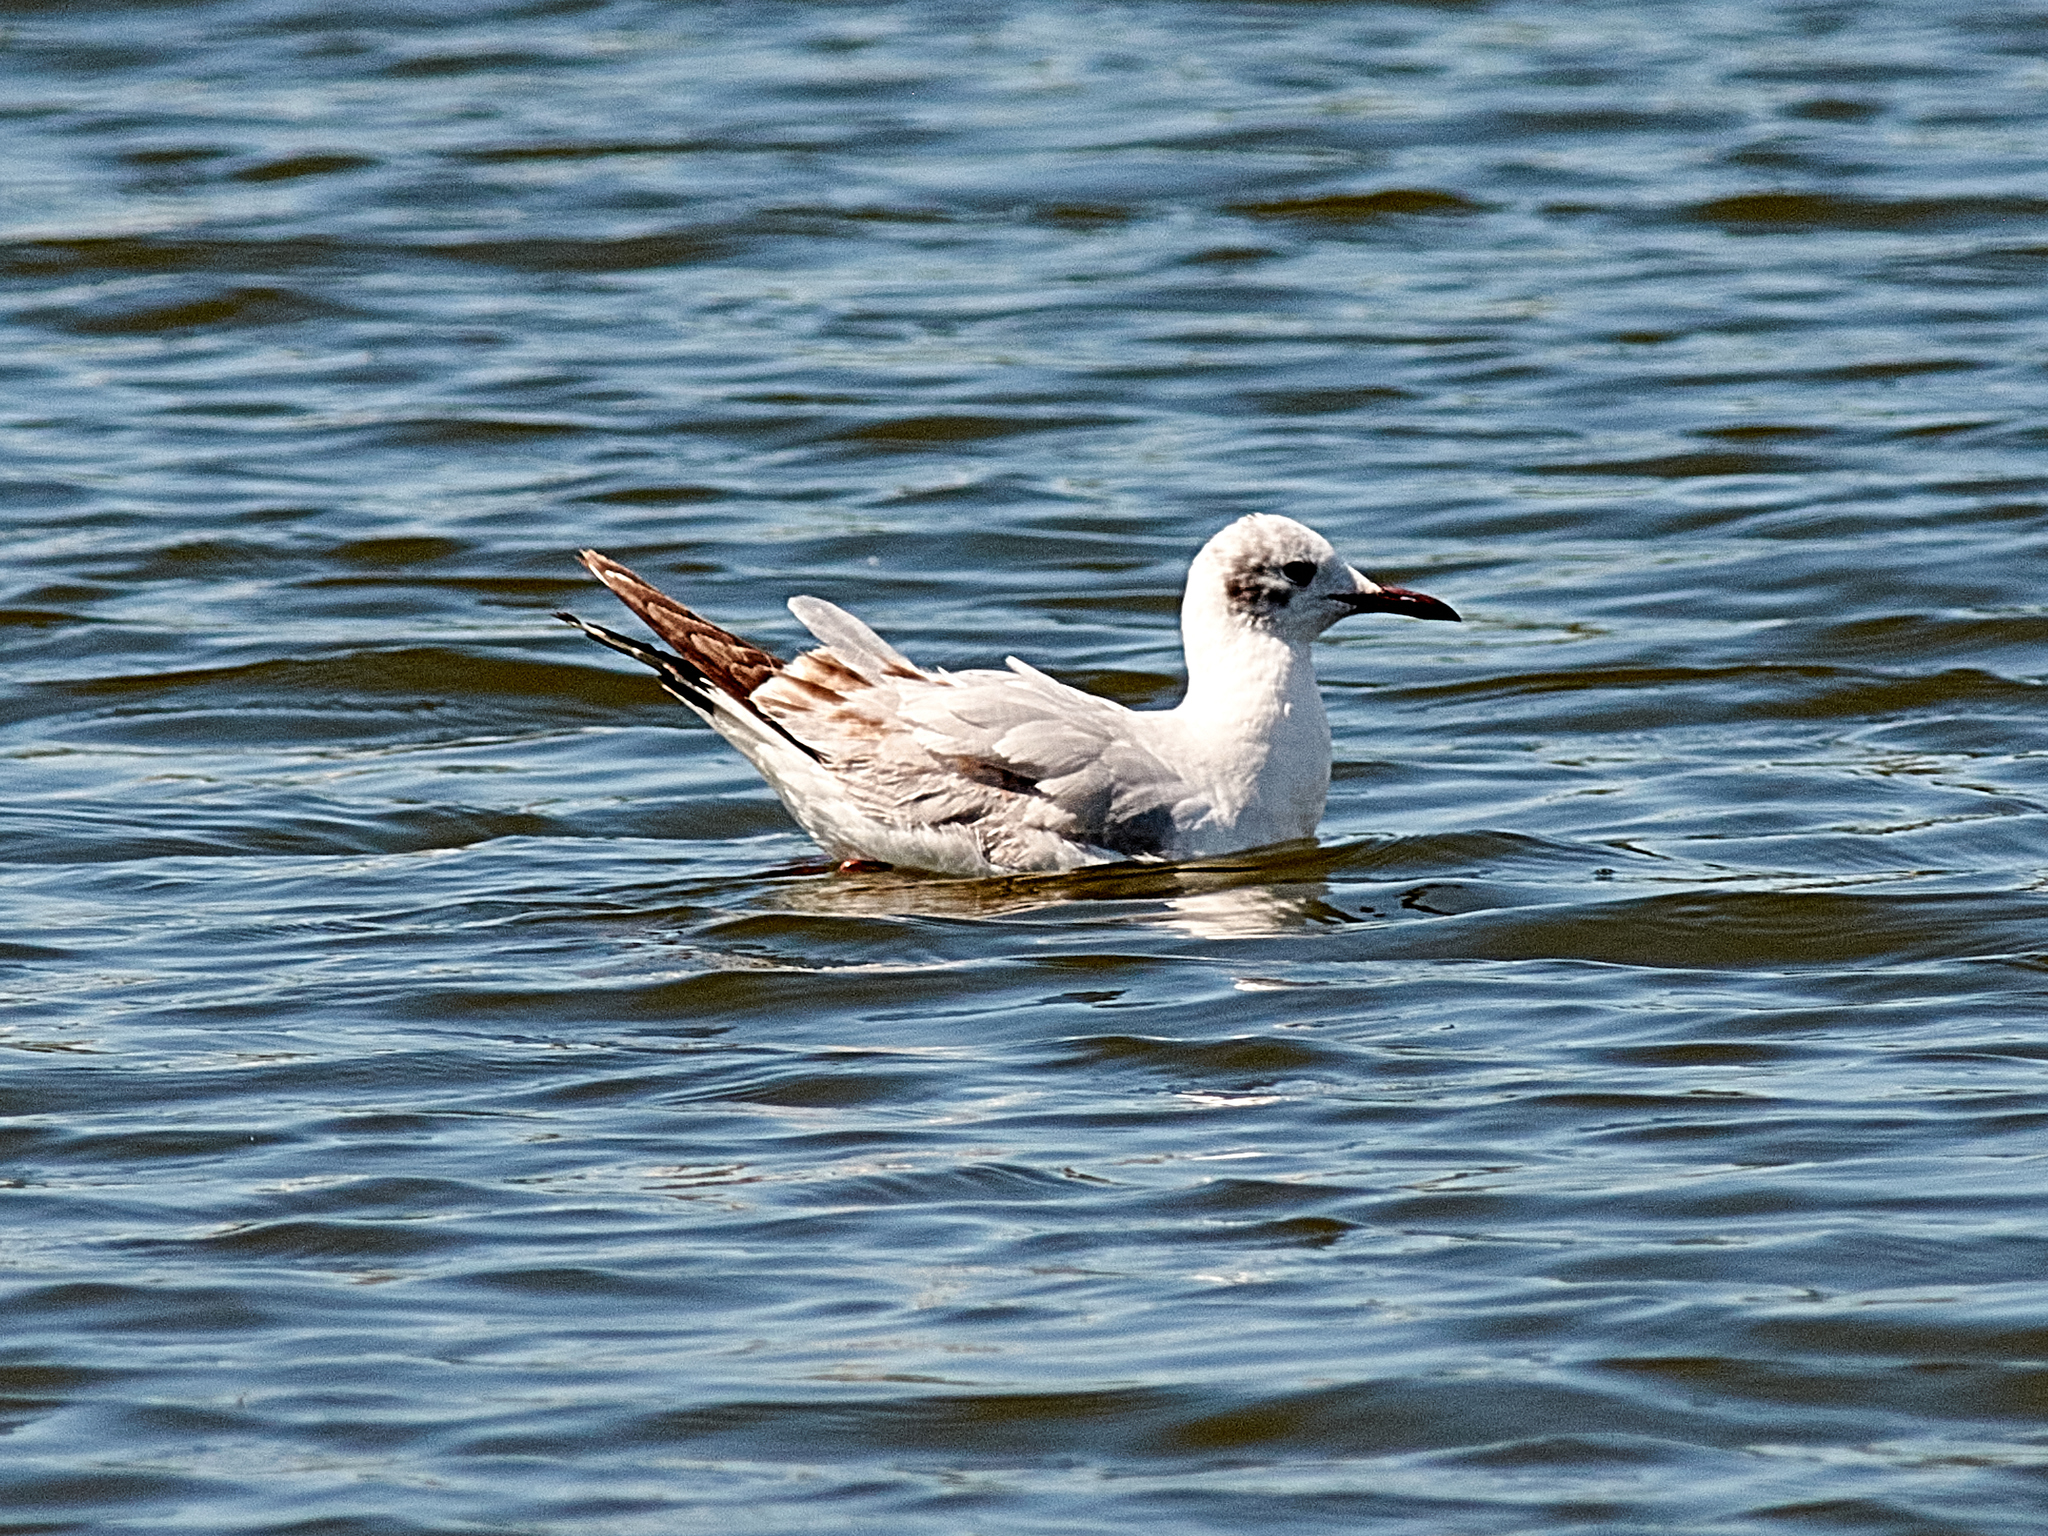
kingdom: Animalia
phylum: Chordata
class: Aves
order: Charadriiformes
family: Laridae
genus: Chroicocephalus
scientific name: Chroicocephalus ridibundus
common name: Black-headed gull
